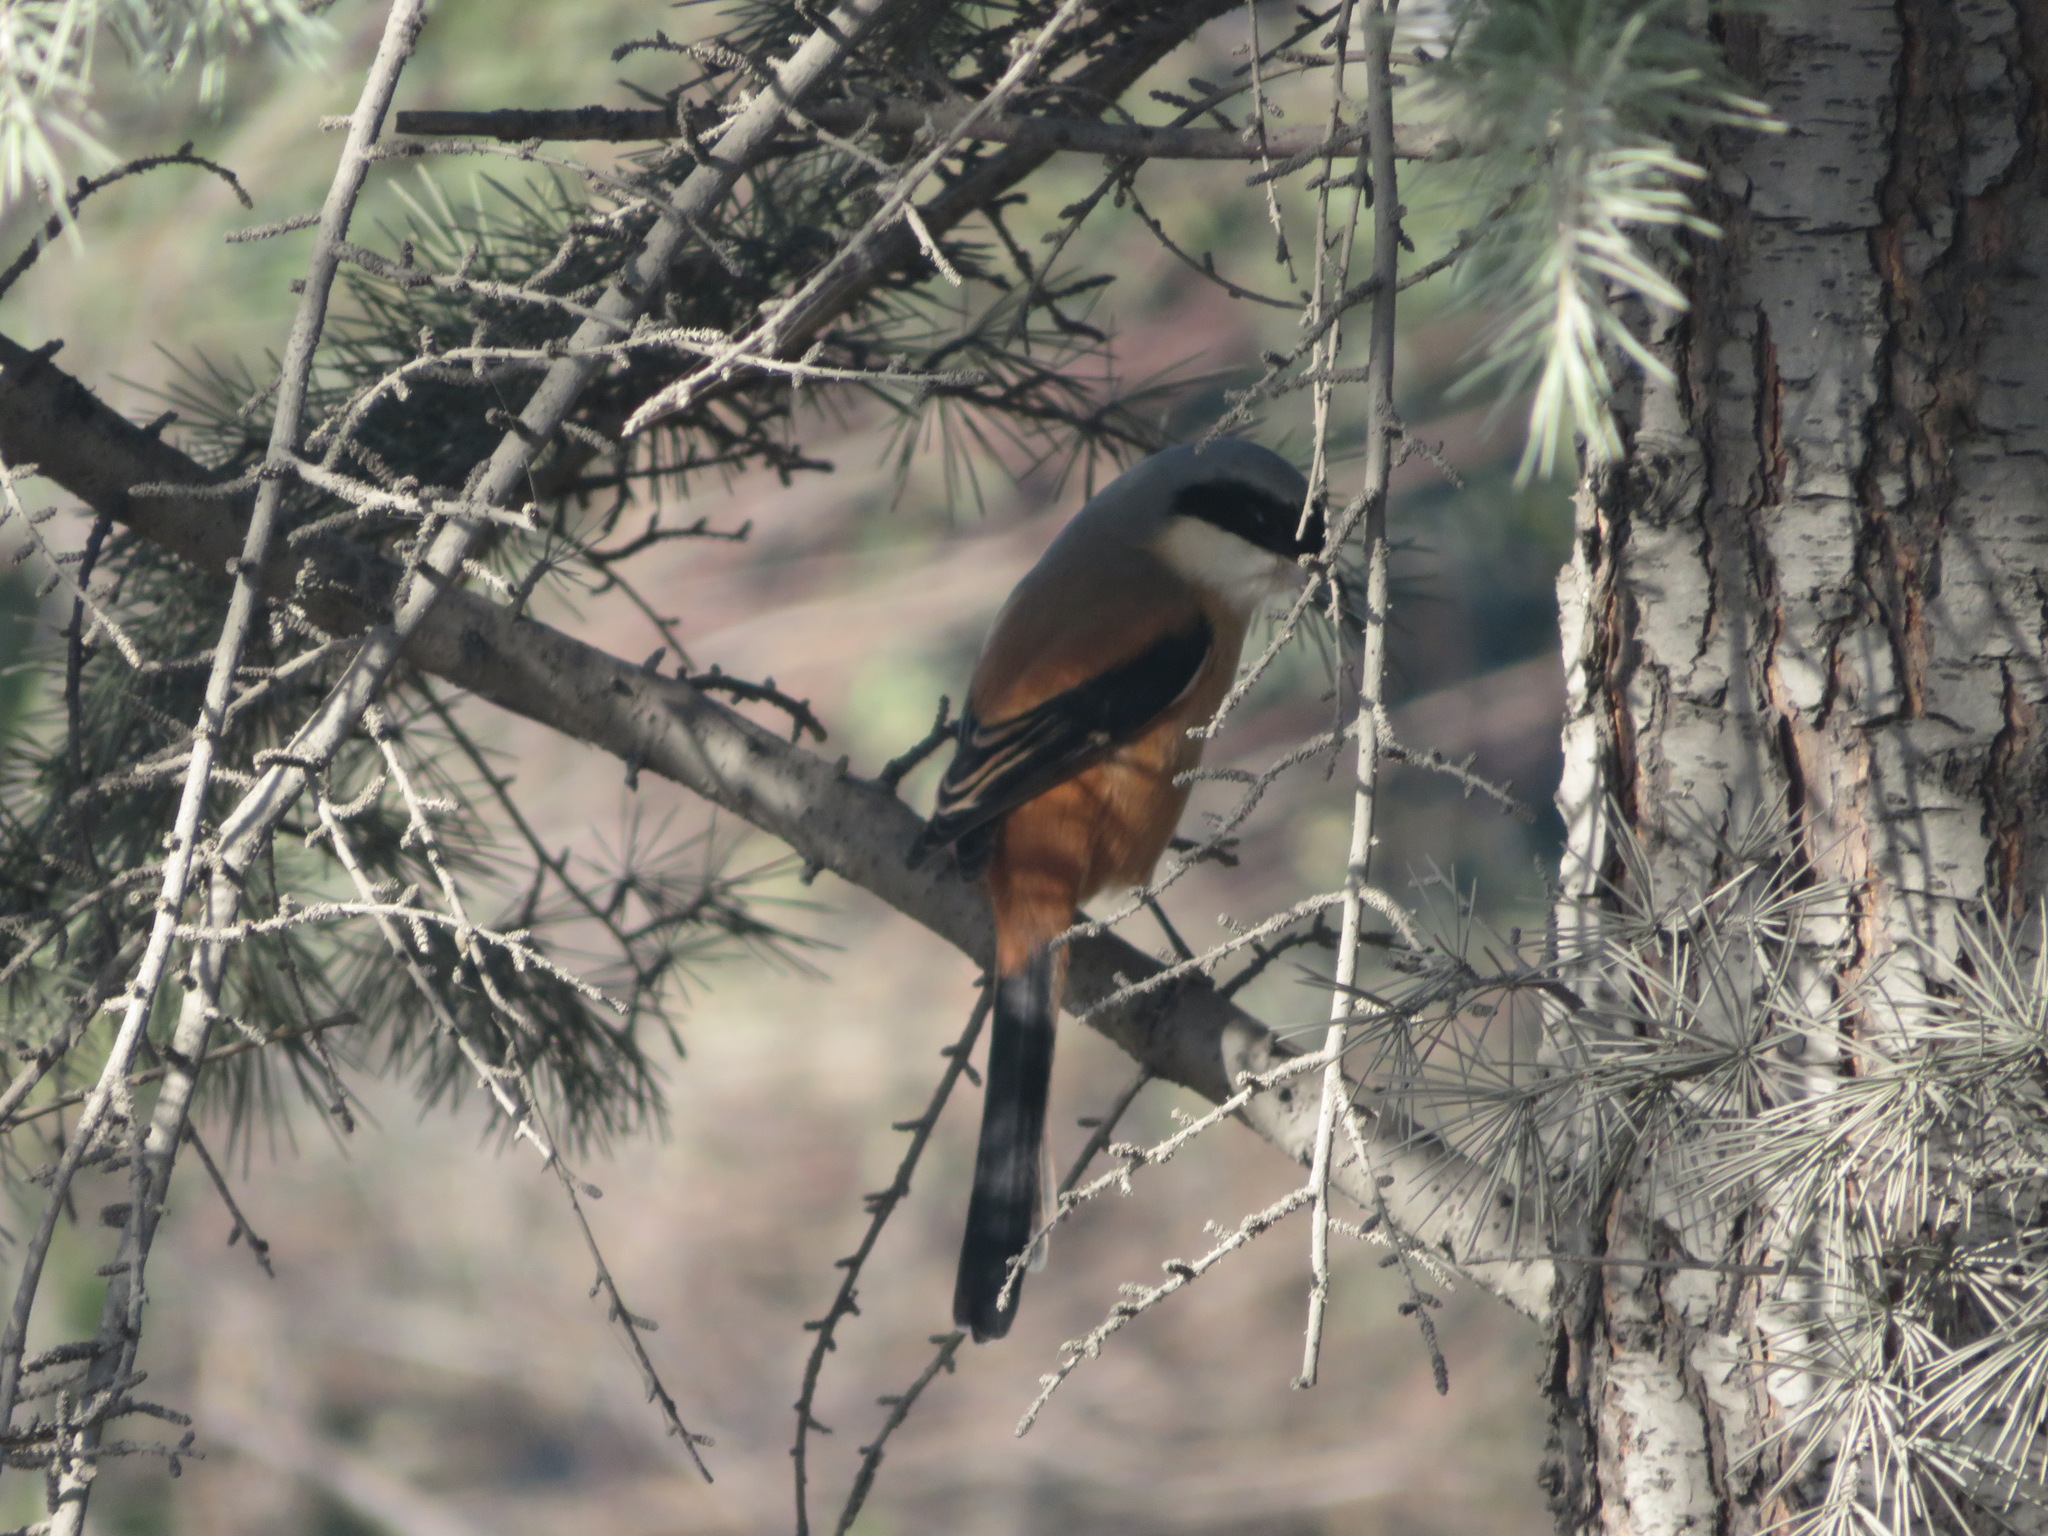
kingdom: Animalia
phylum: Chordata
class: Aves
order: Passeriformes
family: Laniidae
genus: Lanius
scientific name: Lanius schach
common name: Long-tailed shrike
